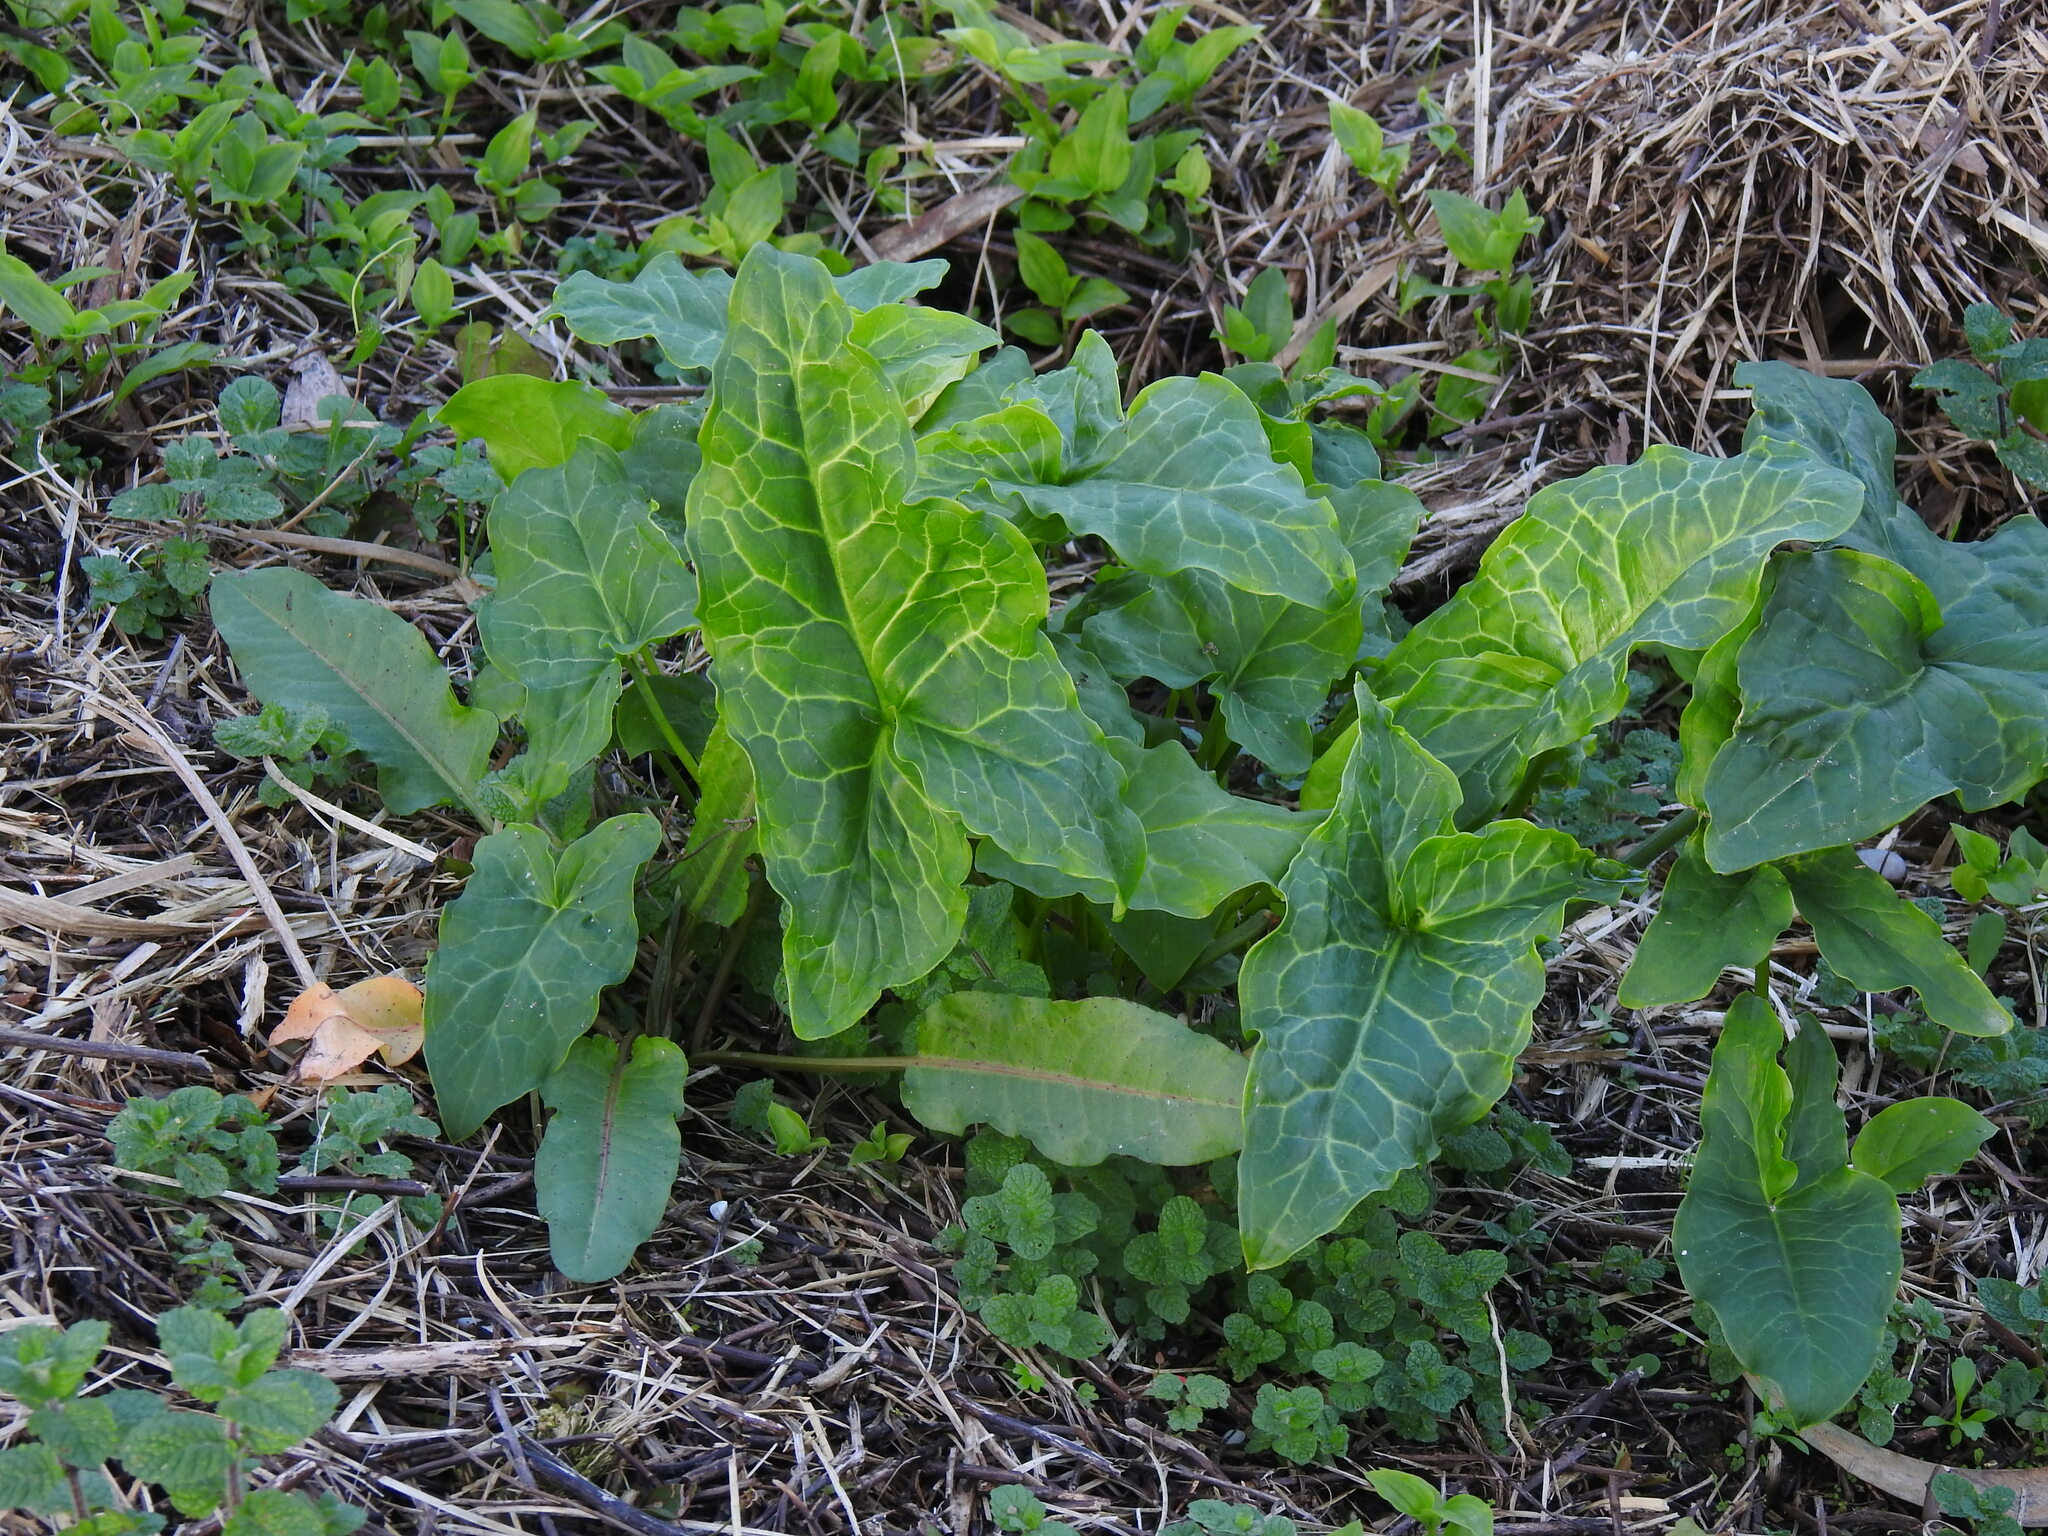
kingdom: Plantae
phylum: Tracheophyta
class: Liliopsida
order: Alismatales
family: Araceae
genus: Arum
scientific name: Arum italicum
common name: Italian lords-and-ladies
